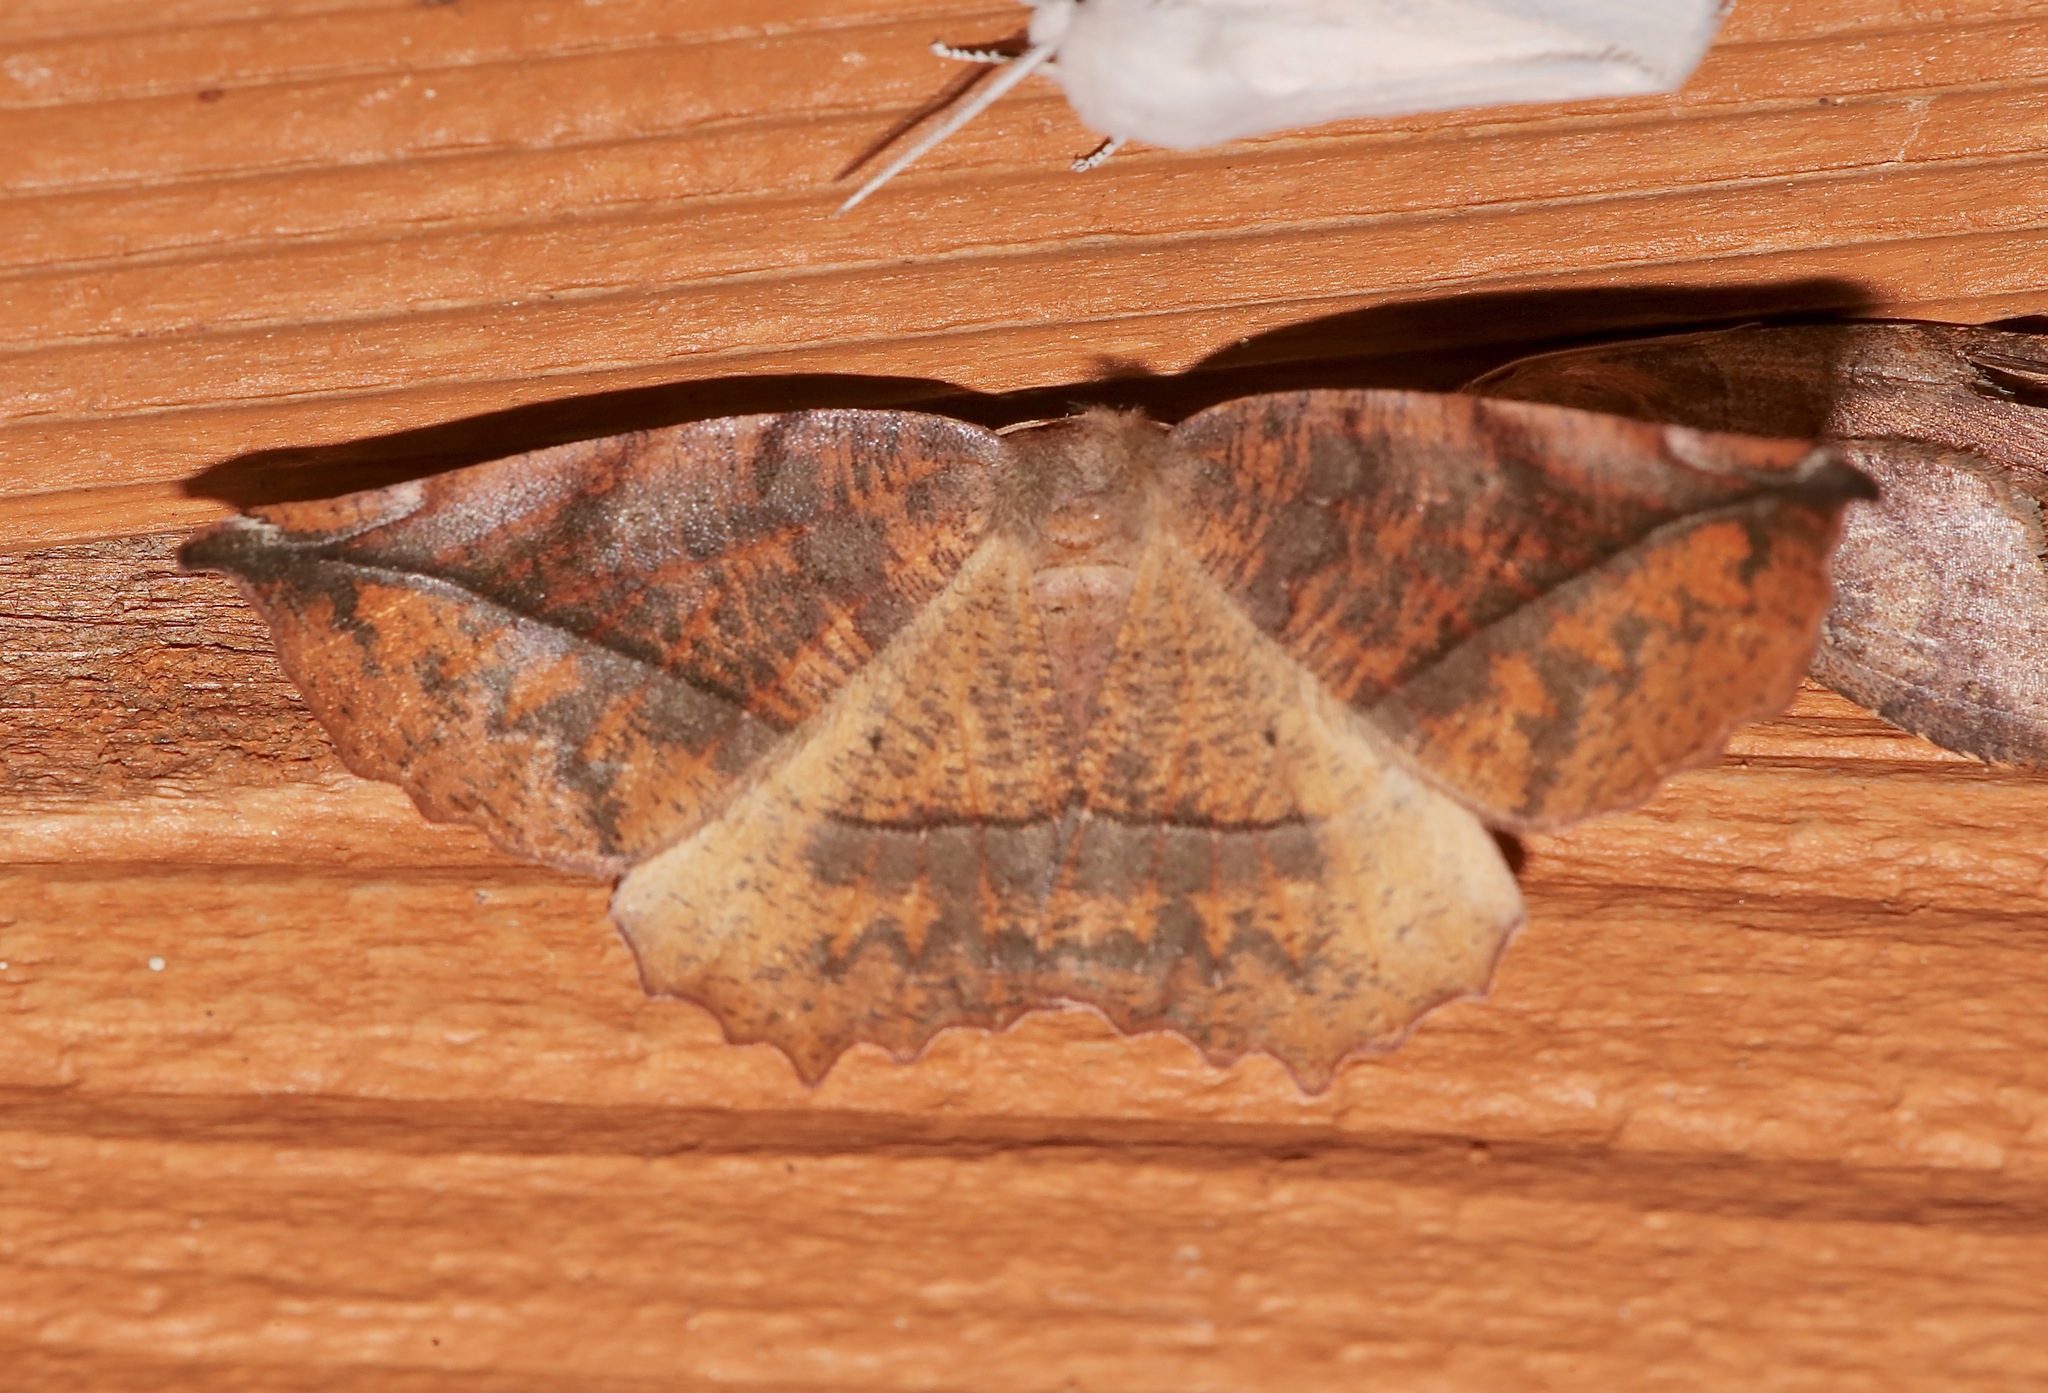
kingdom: Animalia
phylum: Arthropoda
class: Insecta
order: Lepidoptera
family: Geometridae
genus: Eutrapela
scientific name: Eutrapela clemataria
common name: Curved-toothed geometer
